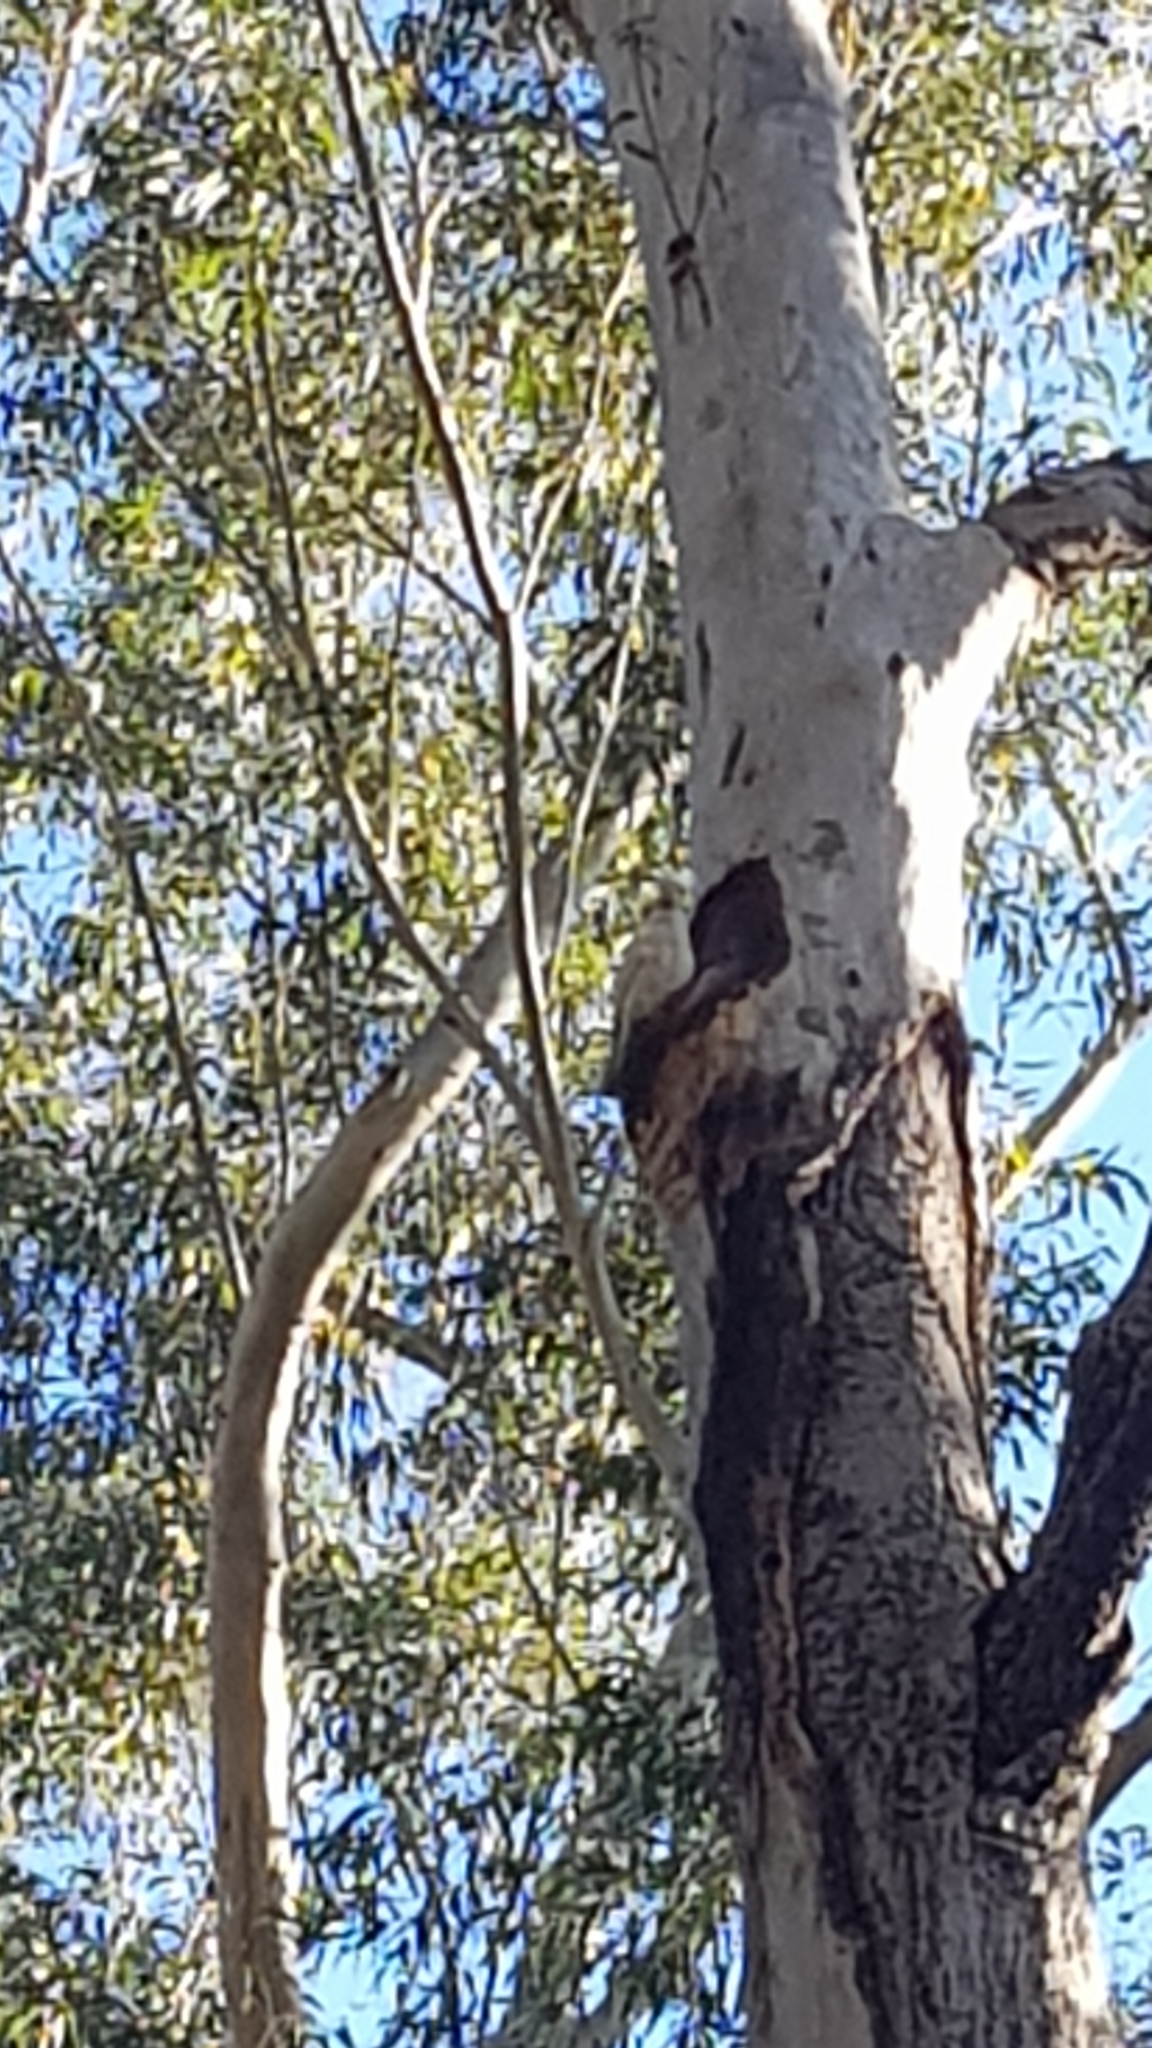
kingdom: Animalia
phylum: Chordata
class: Aves
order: Psittaciformes
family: Psittacidae
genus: Cacatua
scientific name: Cacatua sanguinea
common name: Little corella
